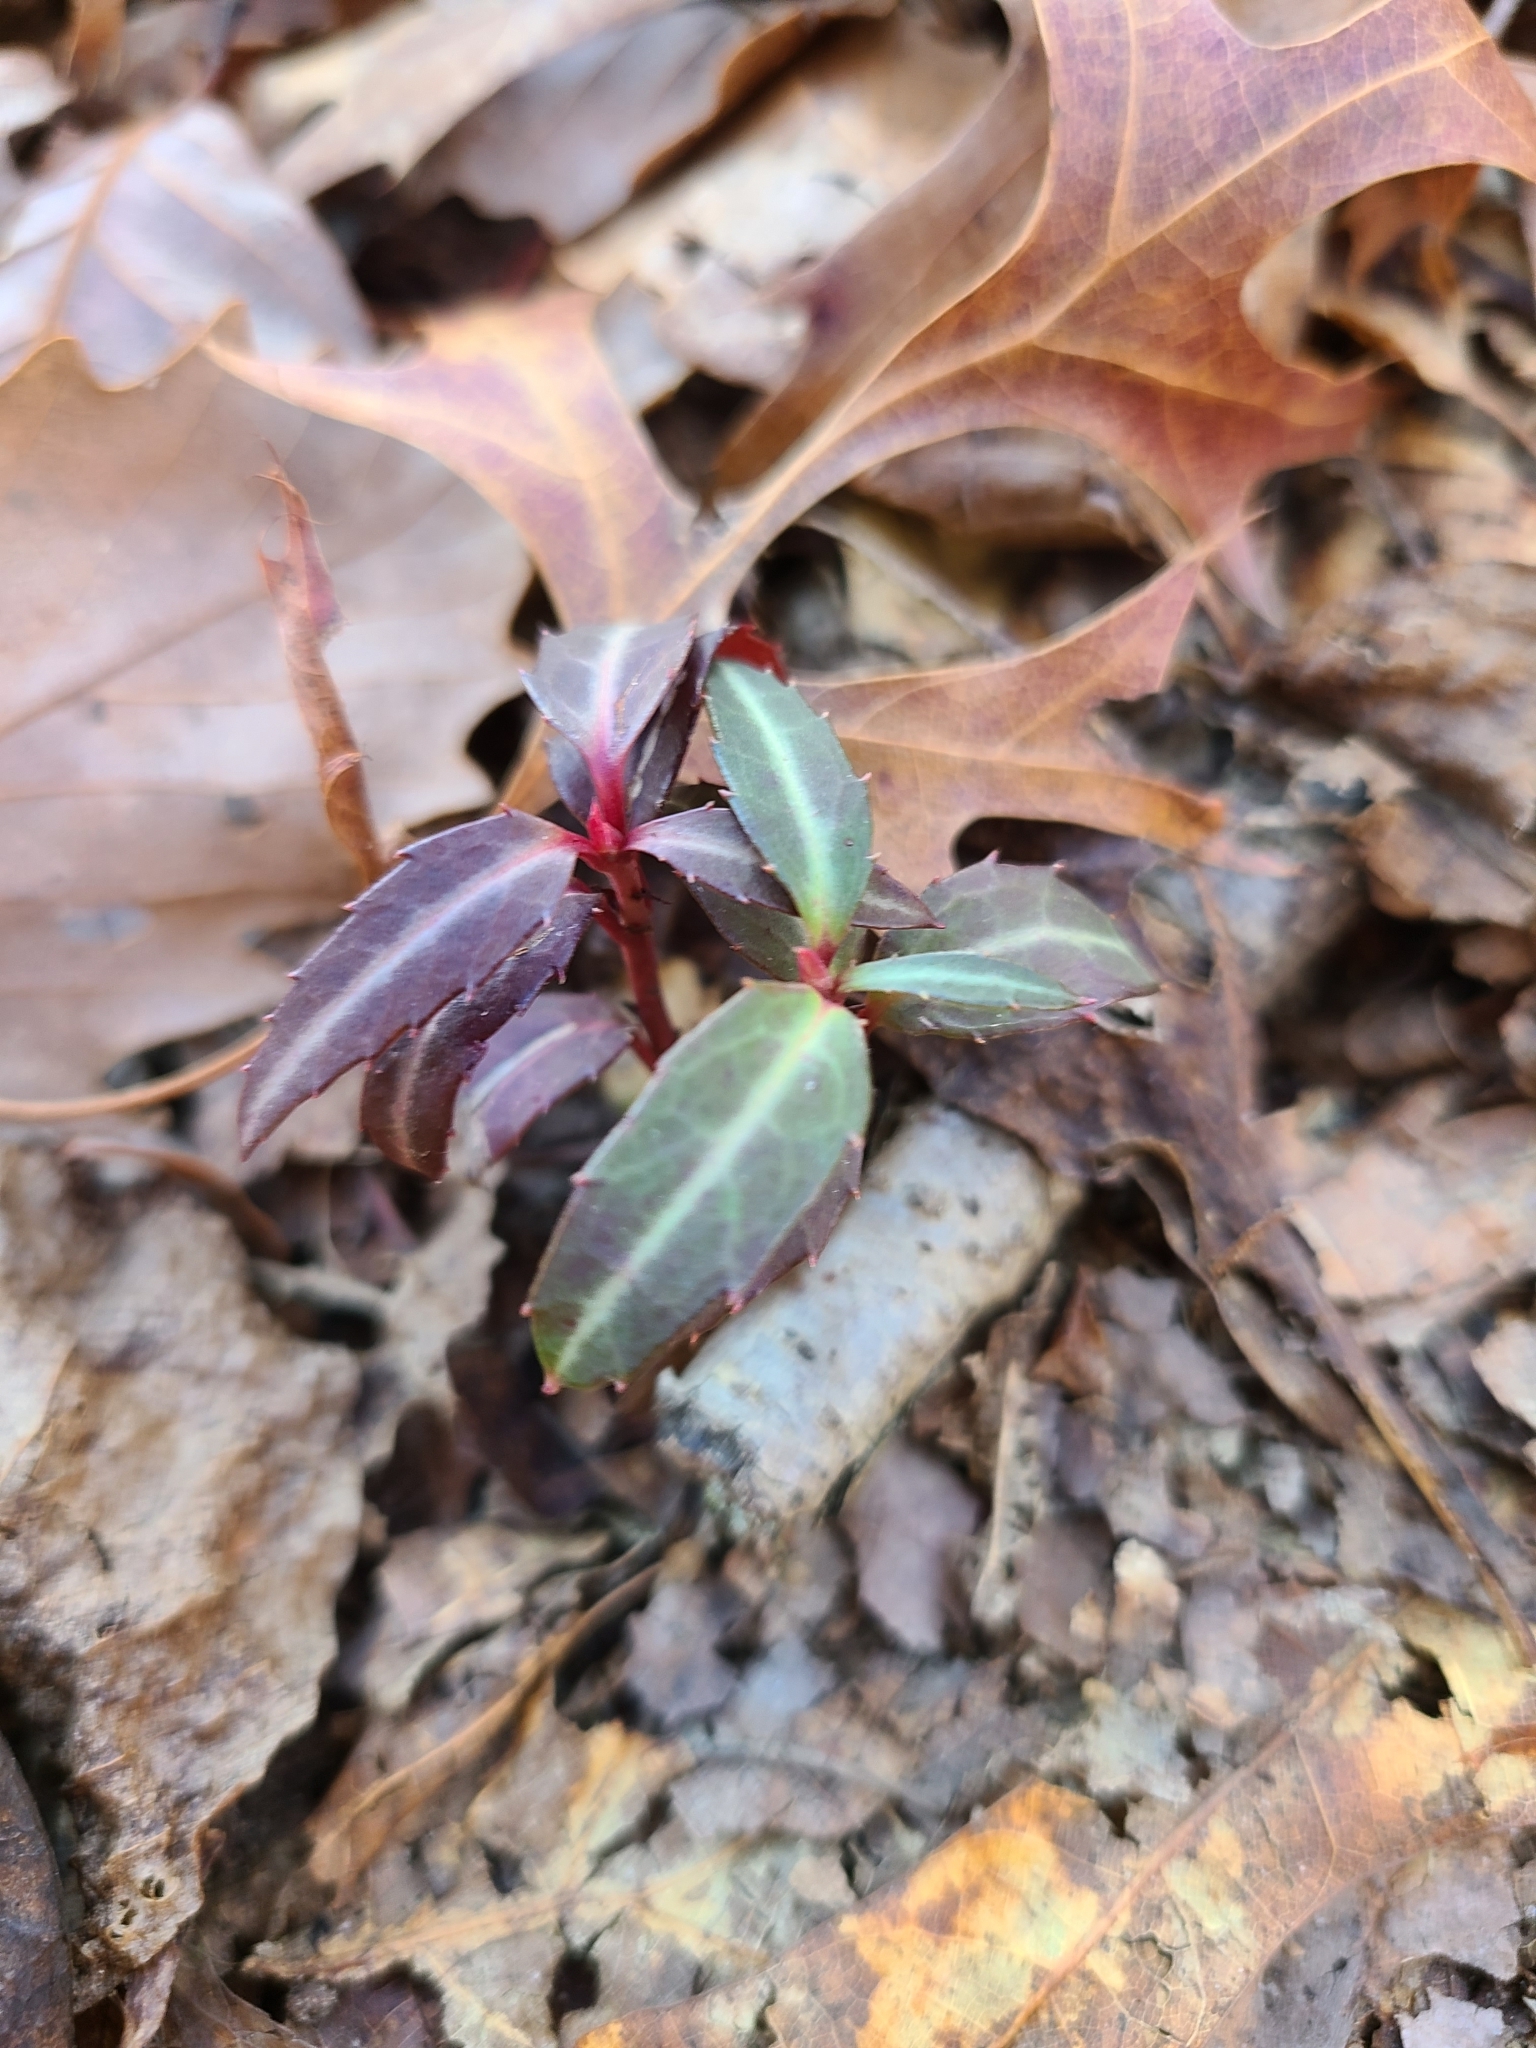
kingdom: Plantae
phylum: Tracheophyta
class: Magnoliopsida
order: Ericales
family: Ericaceae
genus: Chimaphila
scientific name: Chimaphila maculata
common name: Spotted pipsissewa
